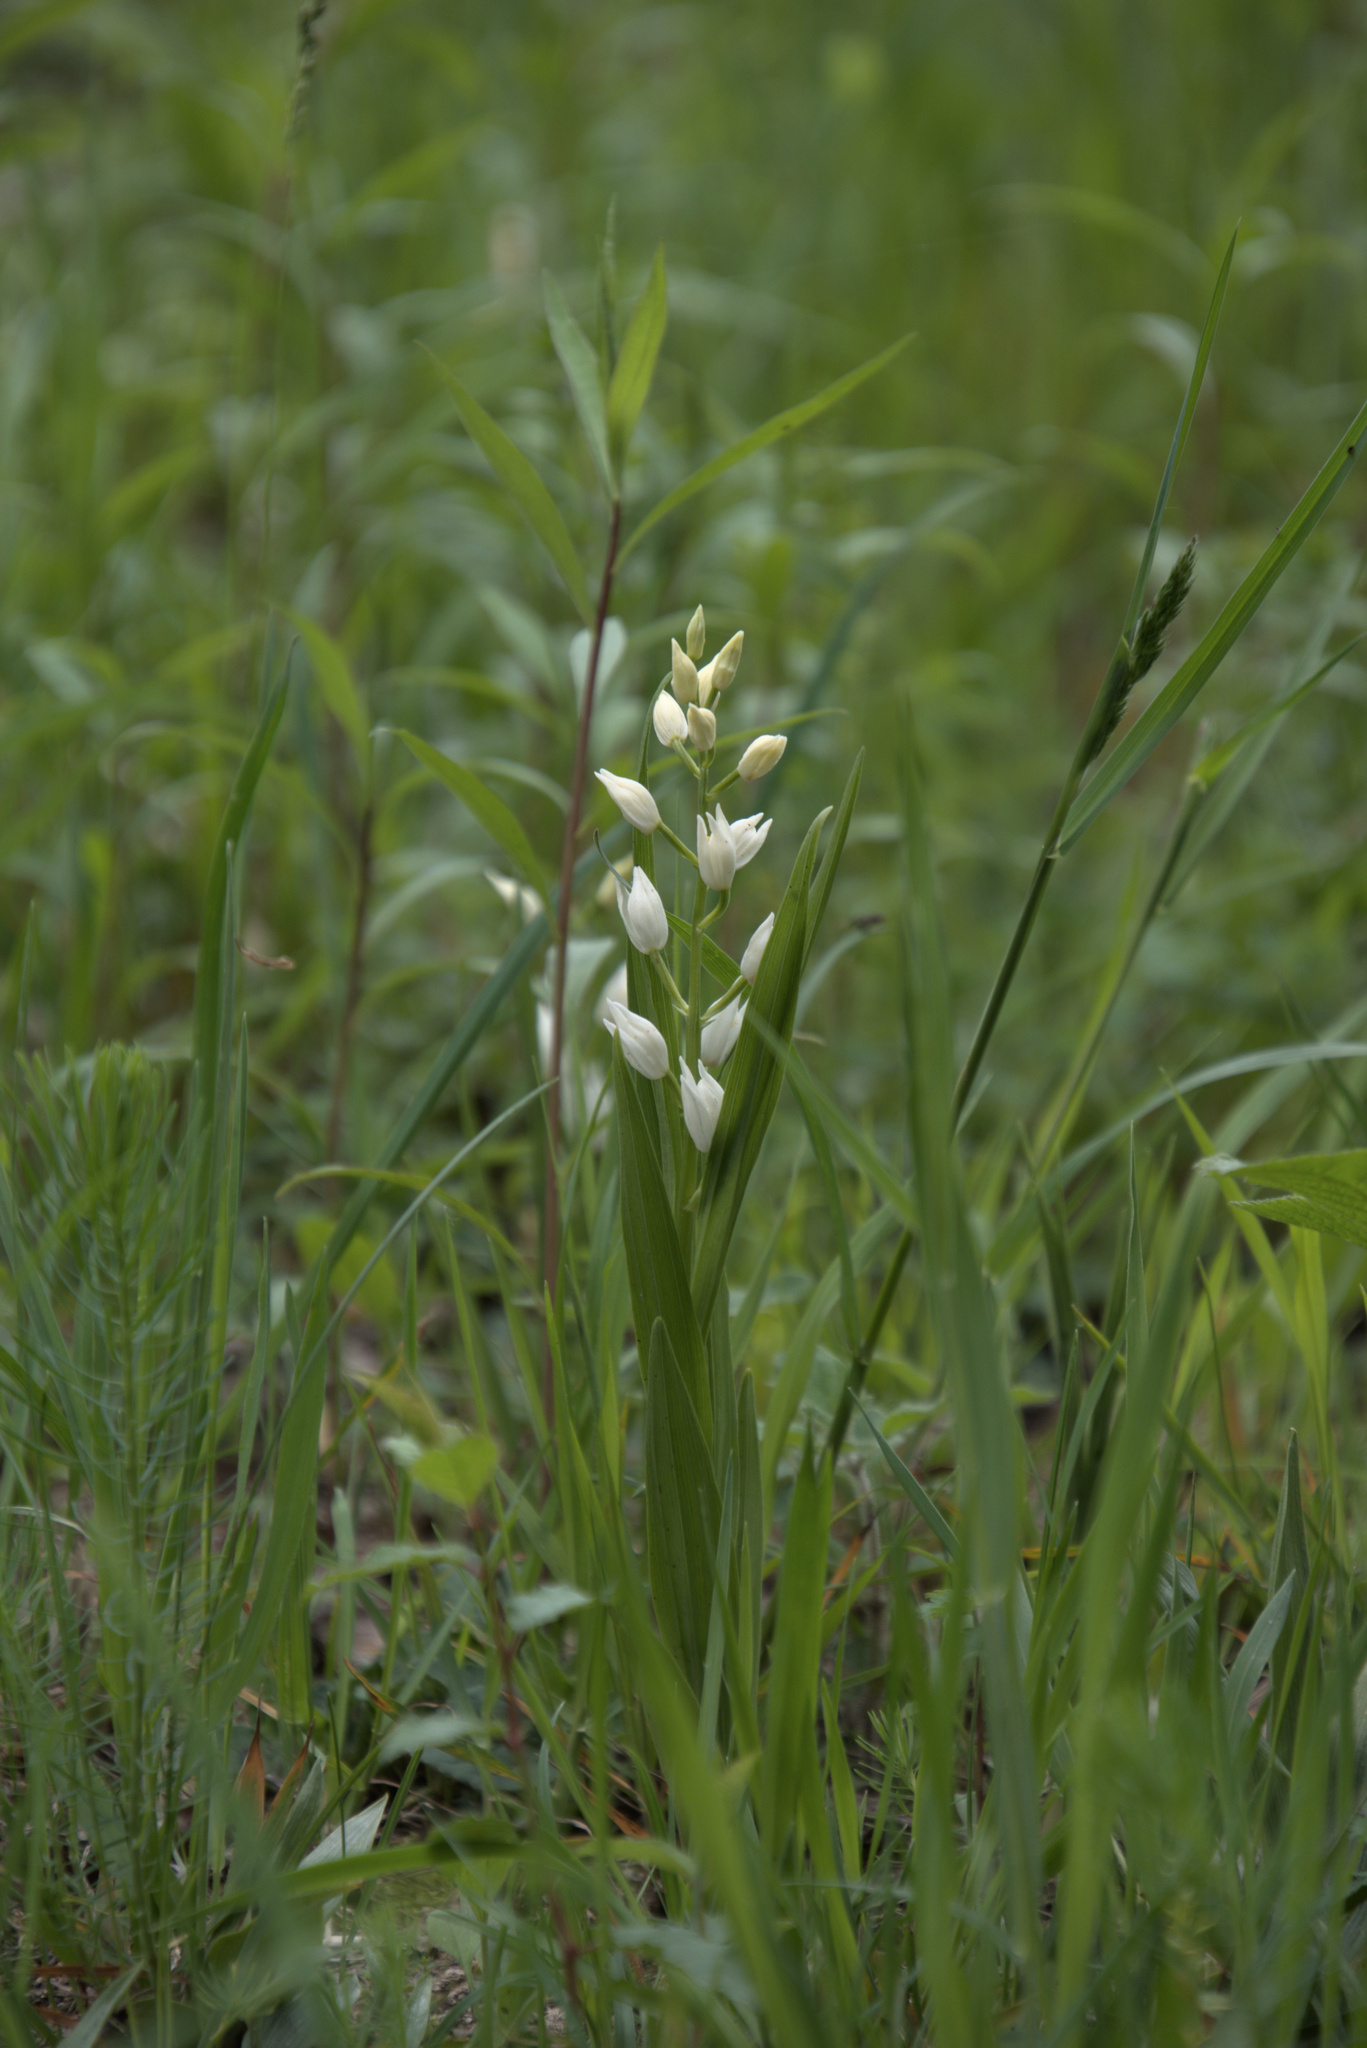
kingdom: Plantae
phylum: Tracheophyta
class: Liliopsida
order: Asparagales
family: Orchidaceae
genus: Cephalanthera
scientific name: Cephalanthera longifolia
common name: Narrow-leaved helleborine
